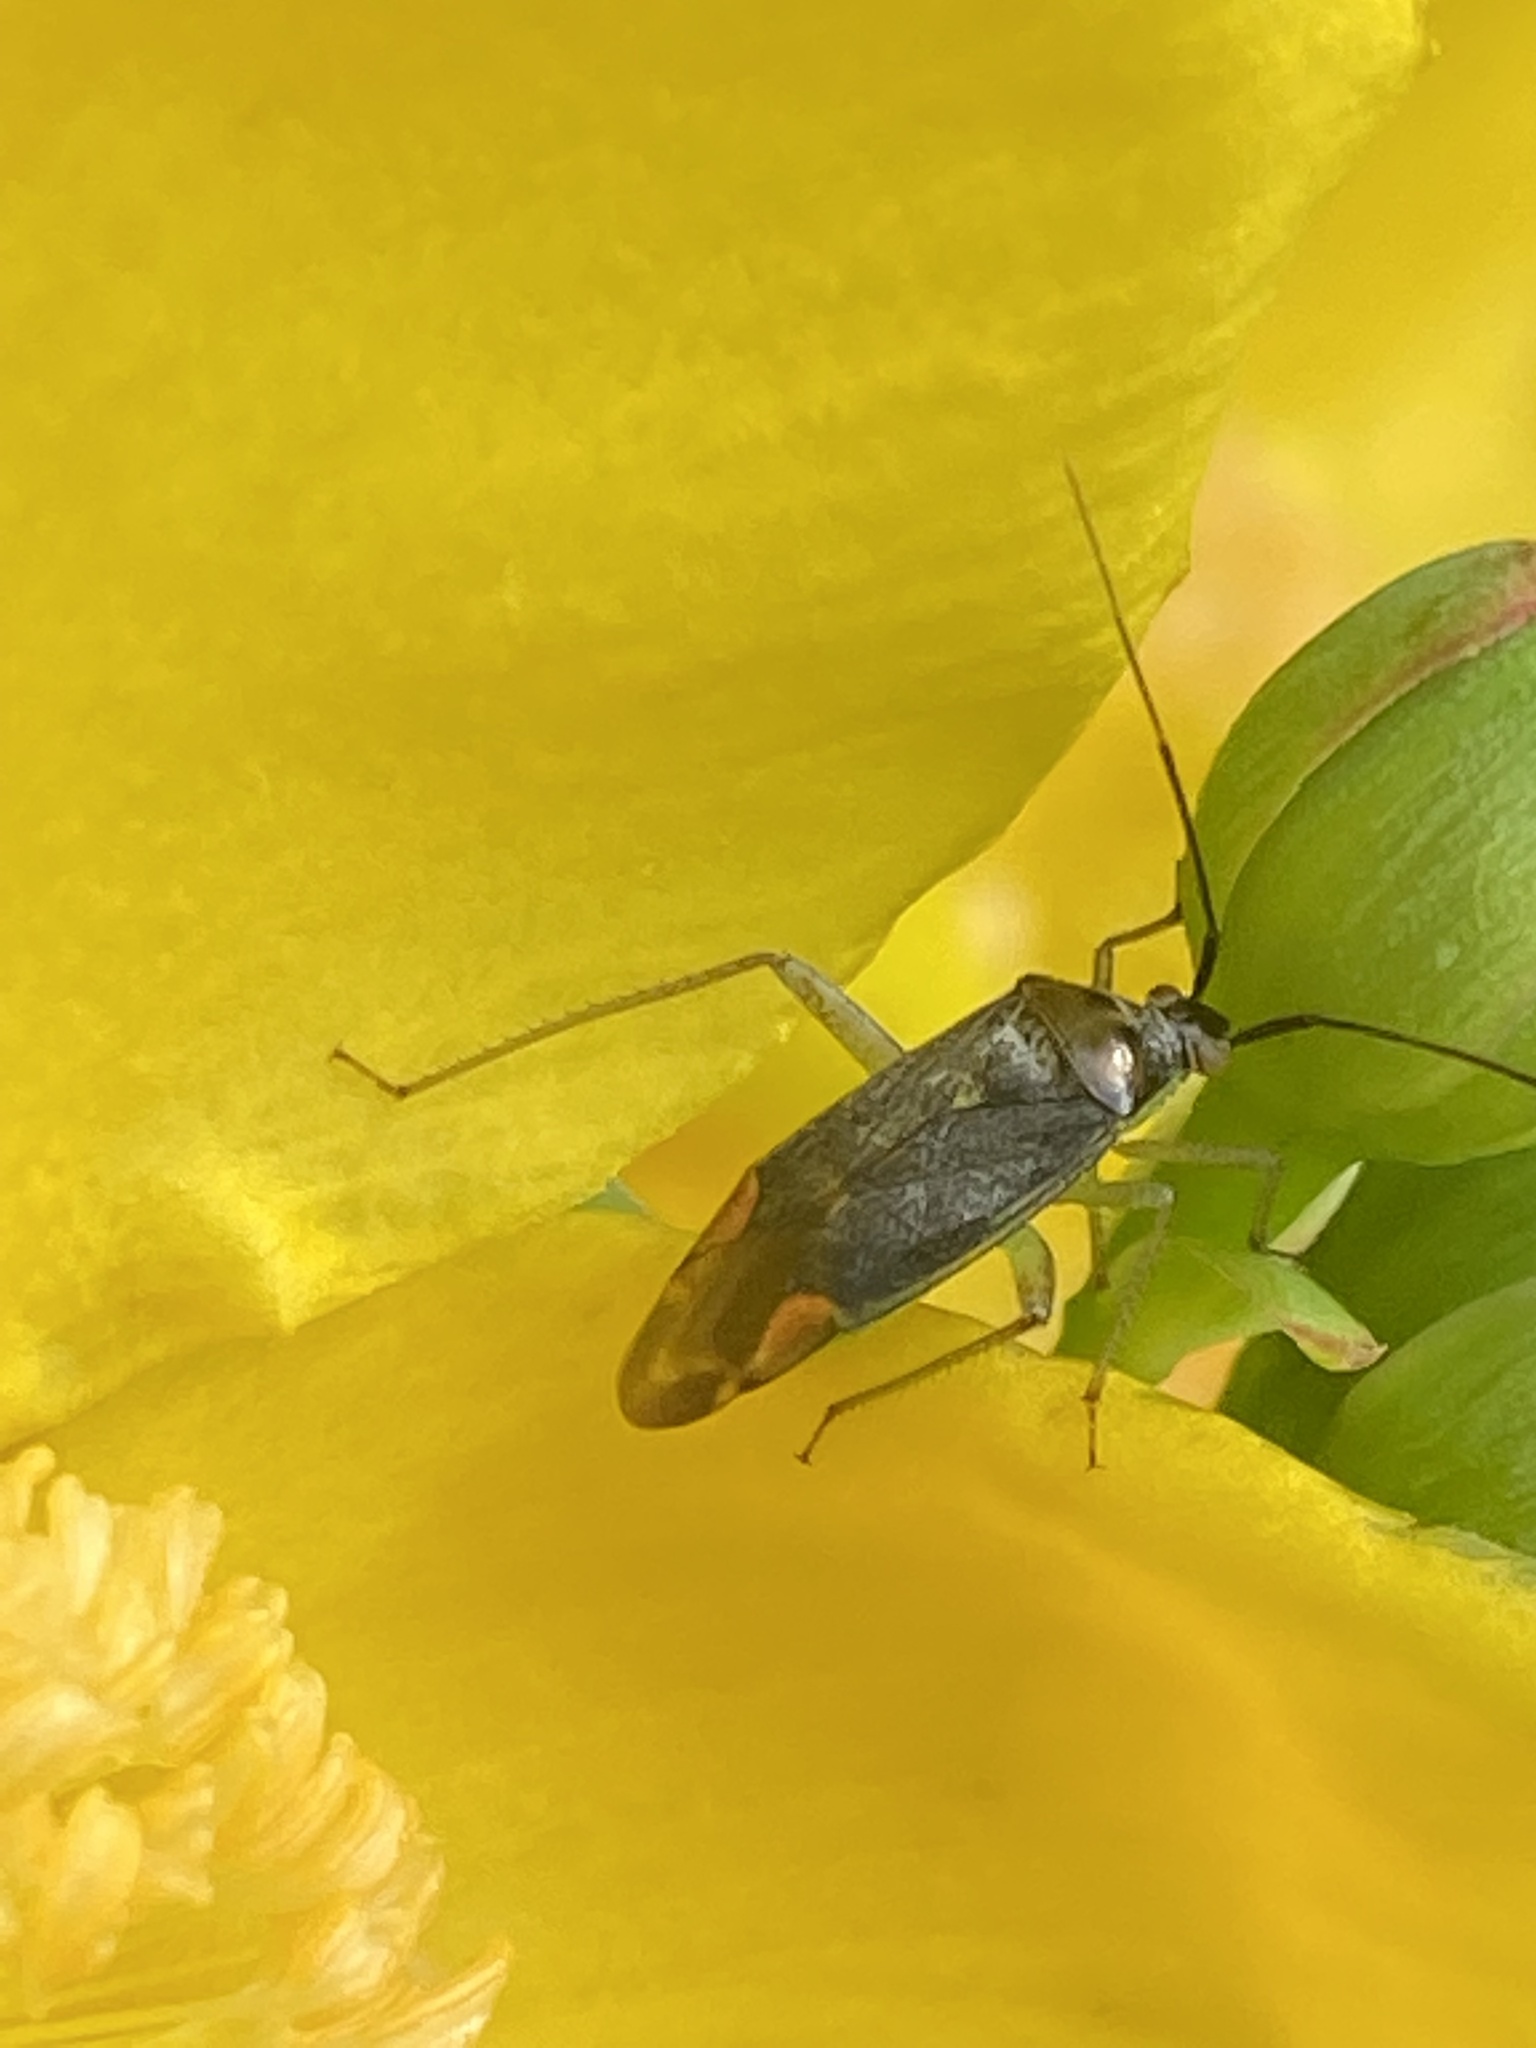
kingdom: Animalia
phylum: Arthropoda
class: Insecta
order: Hemiptera
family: Miridae
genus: Closterotomus
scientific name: Closterotomus trivialis
